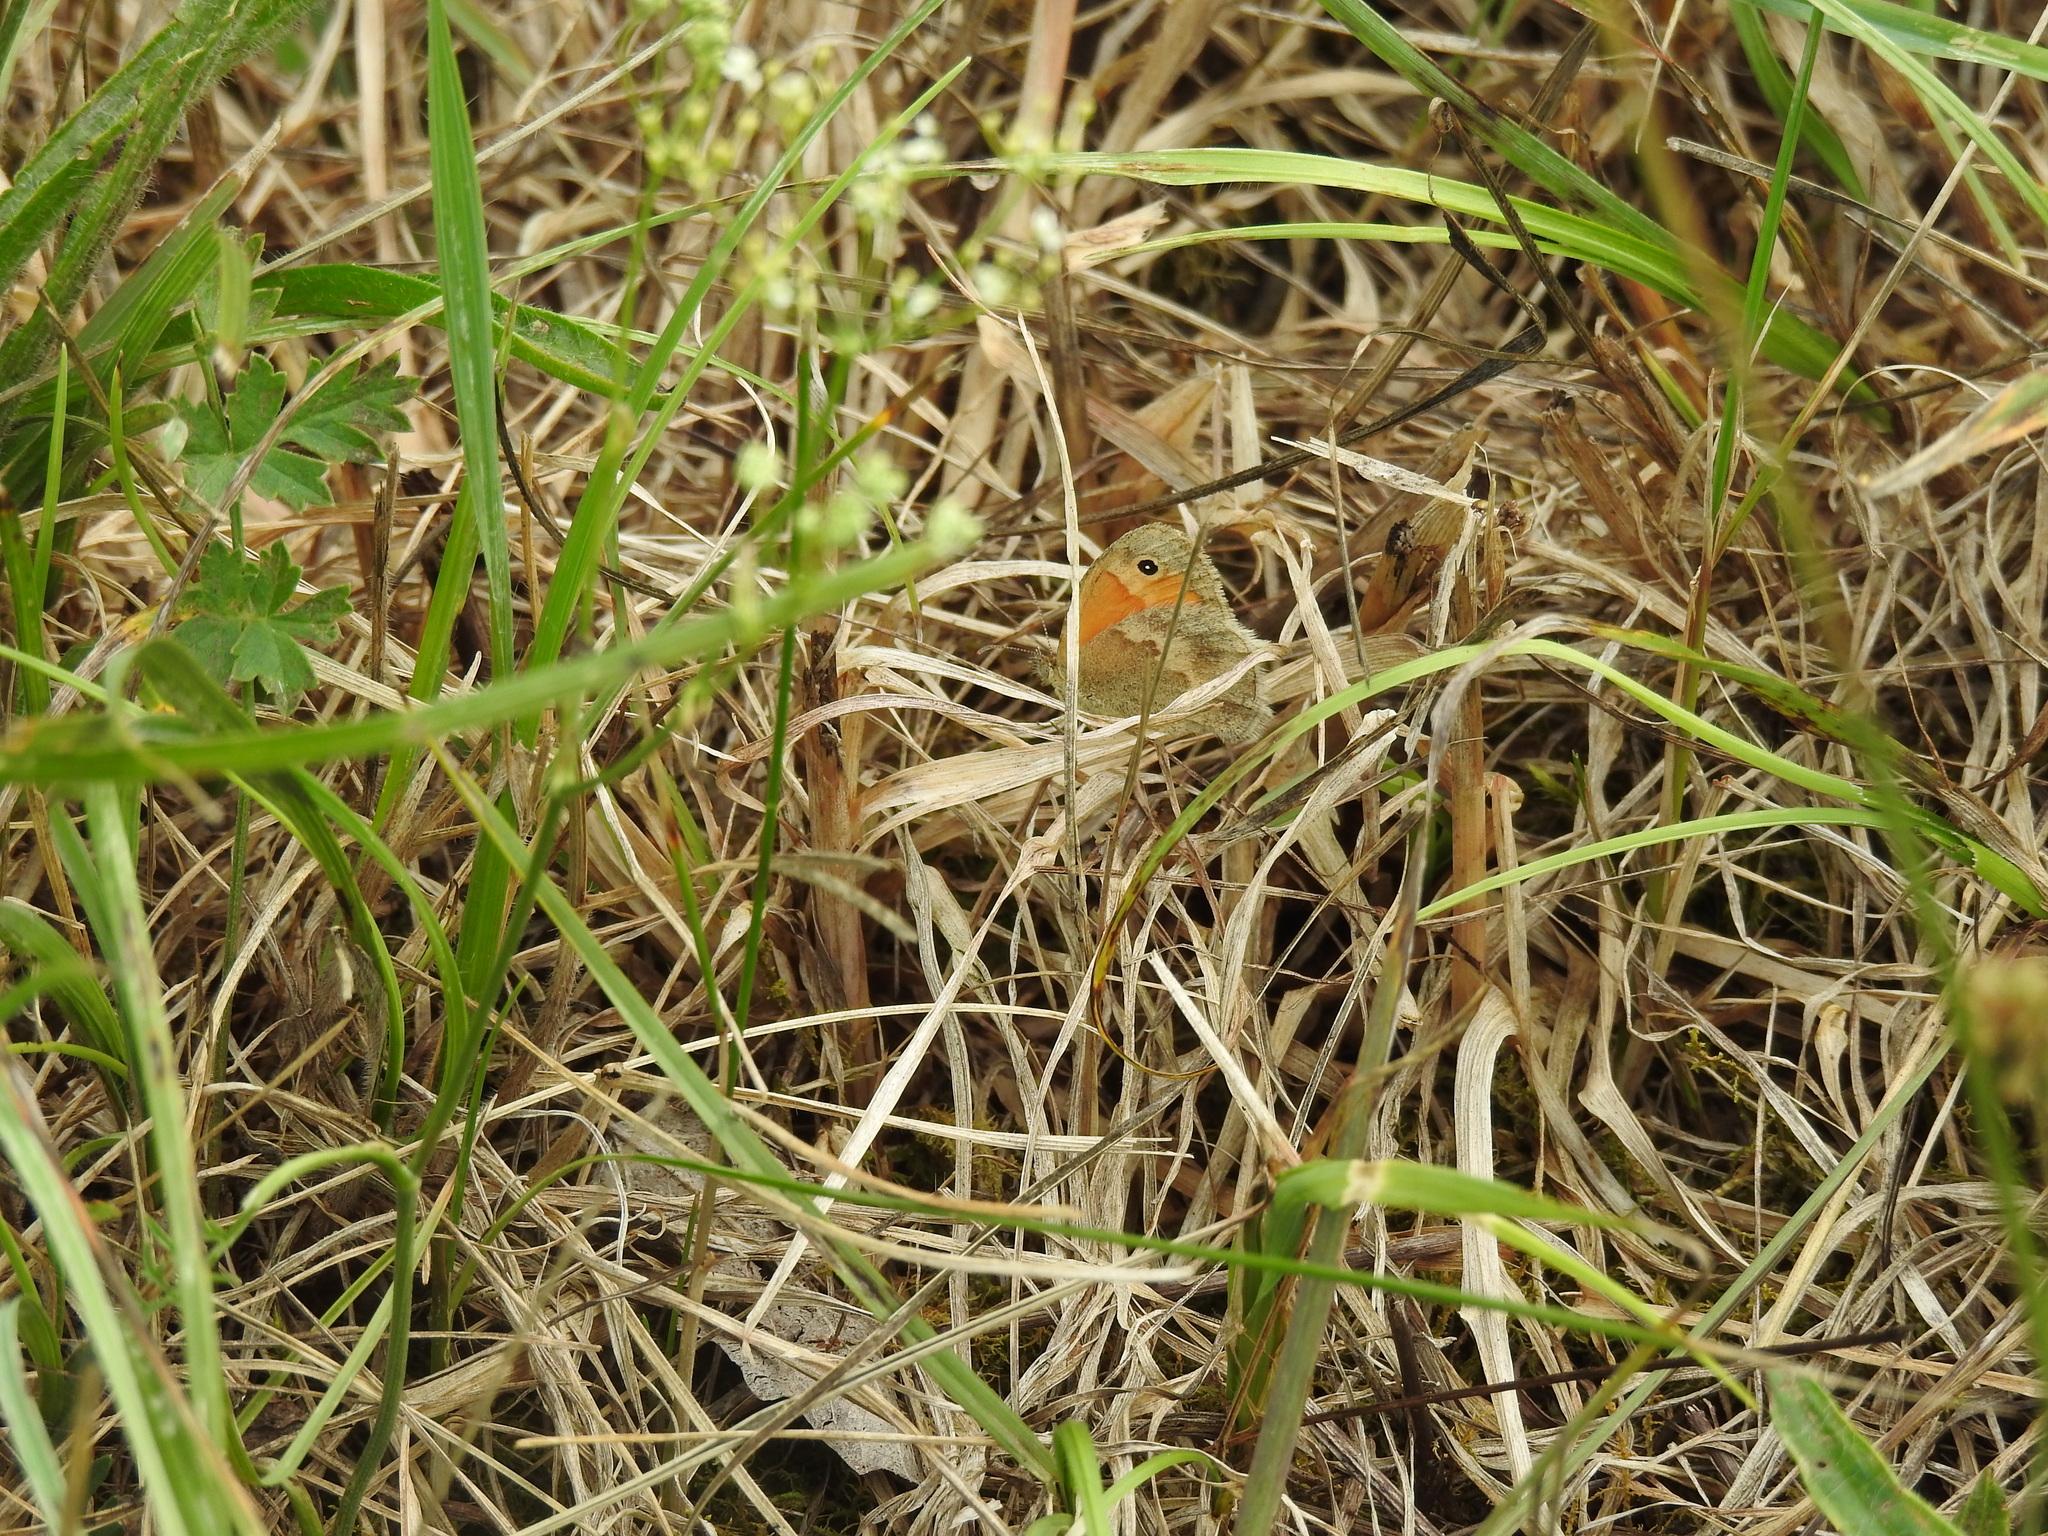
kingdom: Animalia
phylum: Arthropoda
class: Insecta
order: Lepidoptera
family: Nymphalidae
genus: Coenonympha
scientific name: Coenonympha pamphilus
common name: Small heath
